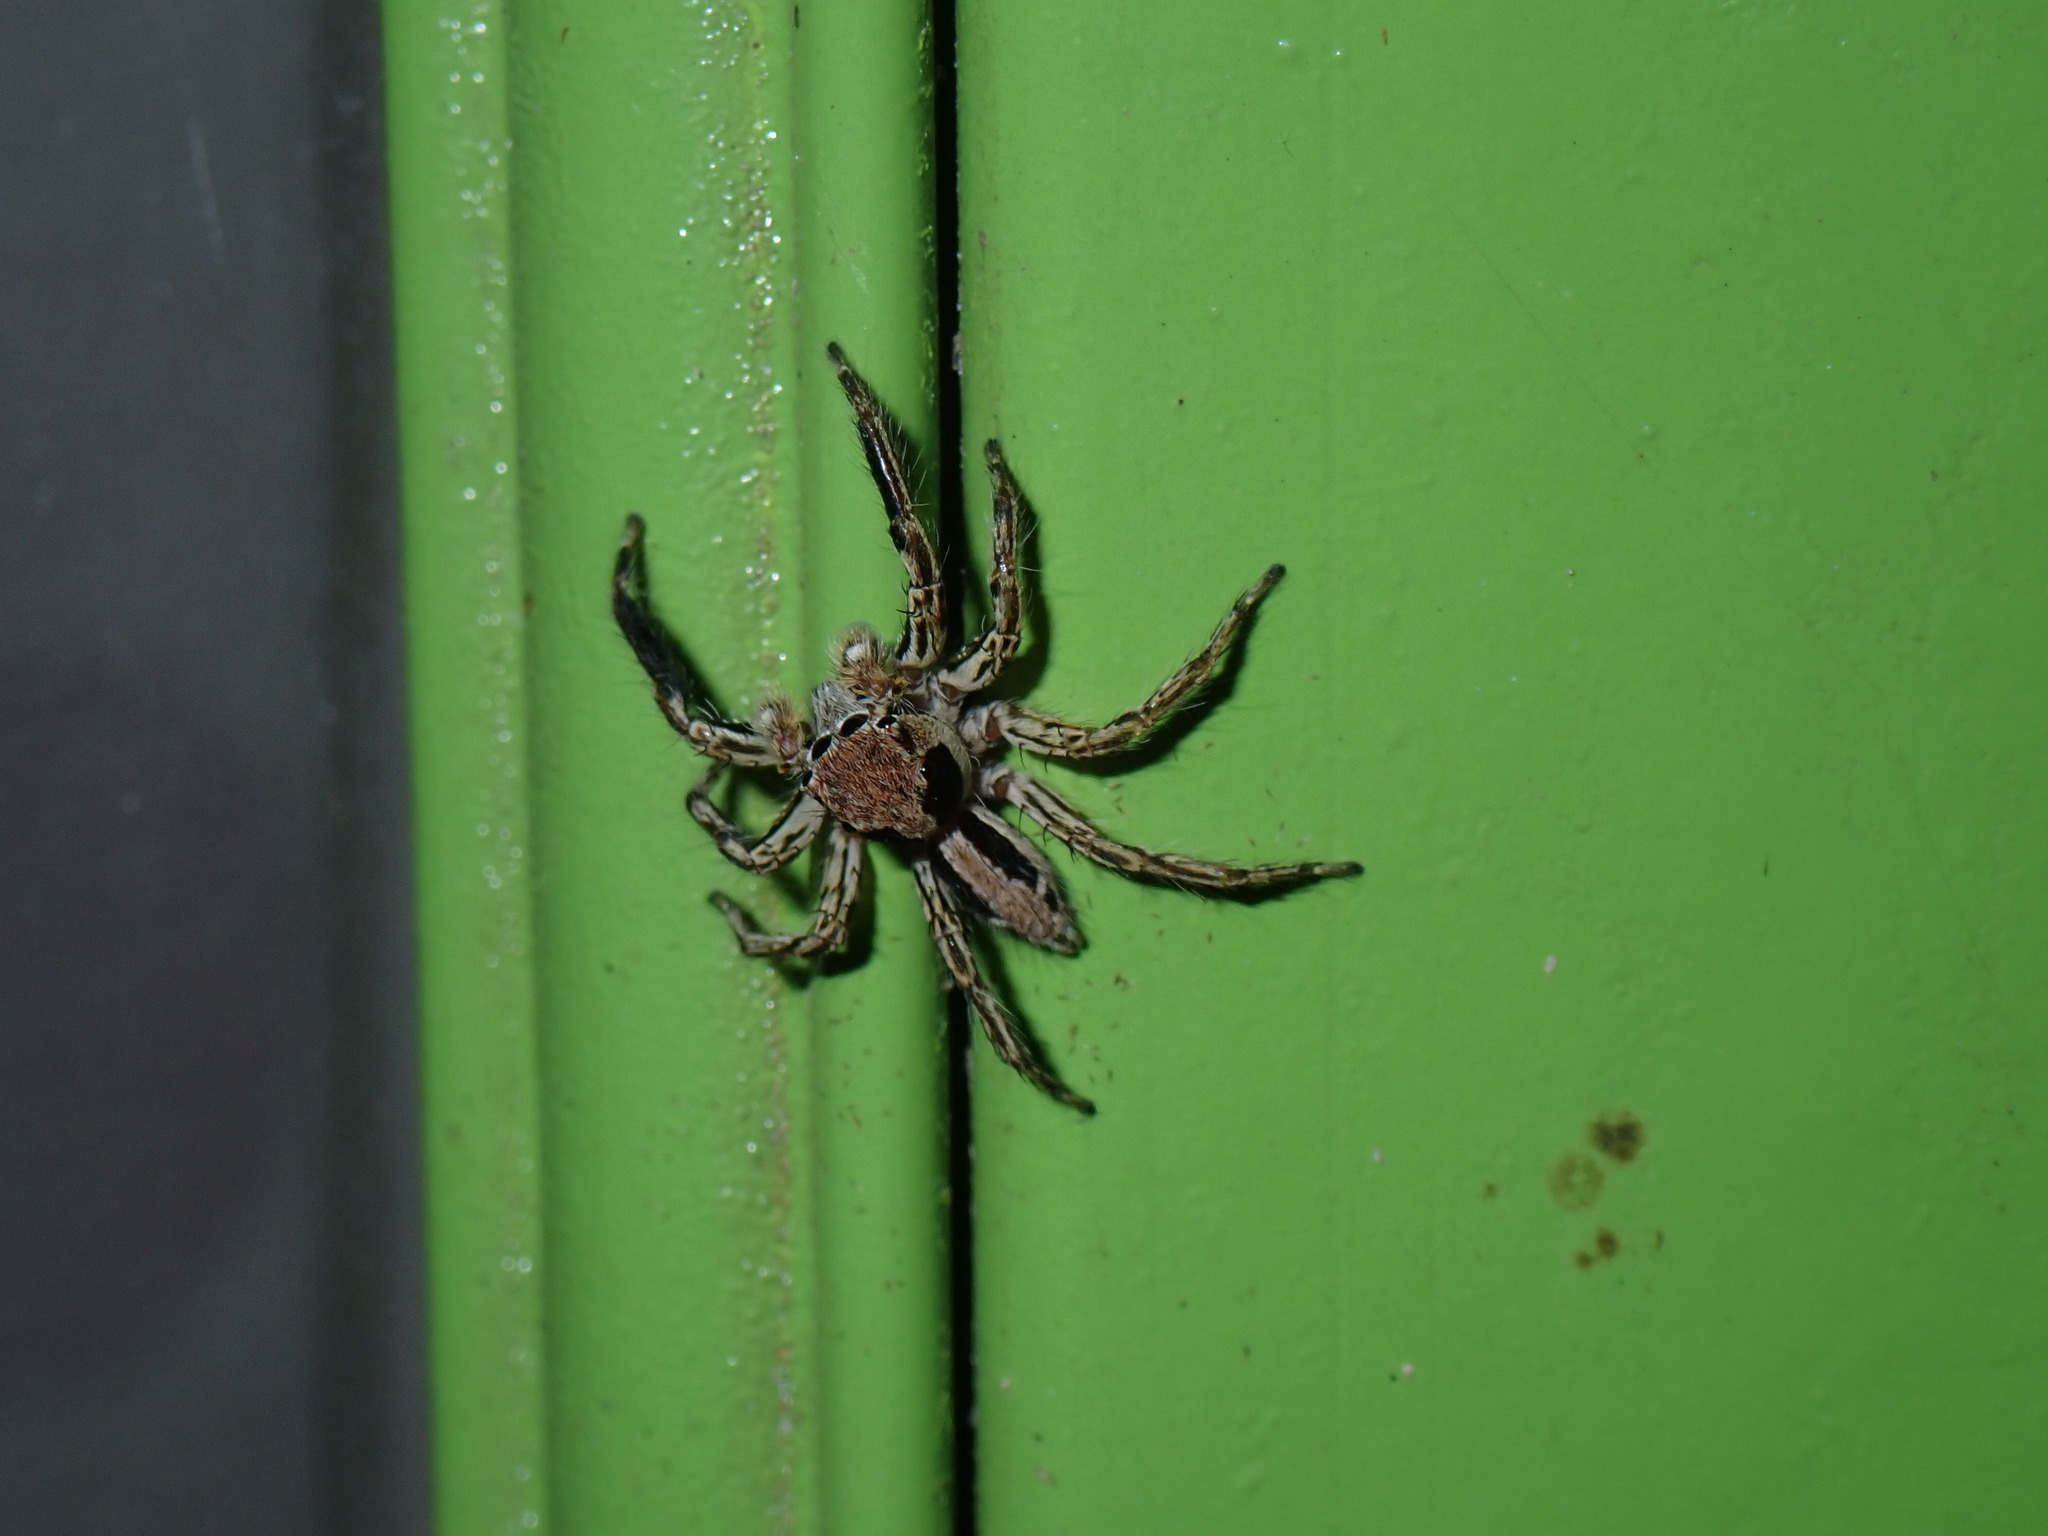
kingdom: Animalia
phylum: Arthropoda
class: Arachnida
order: Araneae
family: Salticidae
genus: Plexippus
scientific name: Plexippus petersi
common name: Jumping spider
